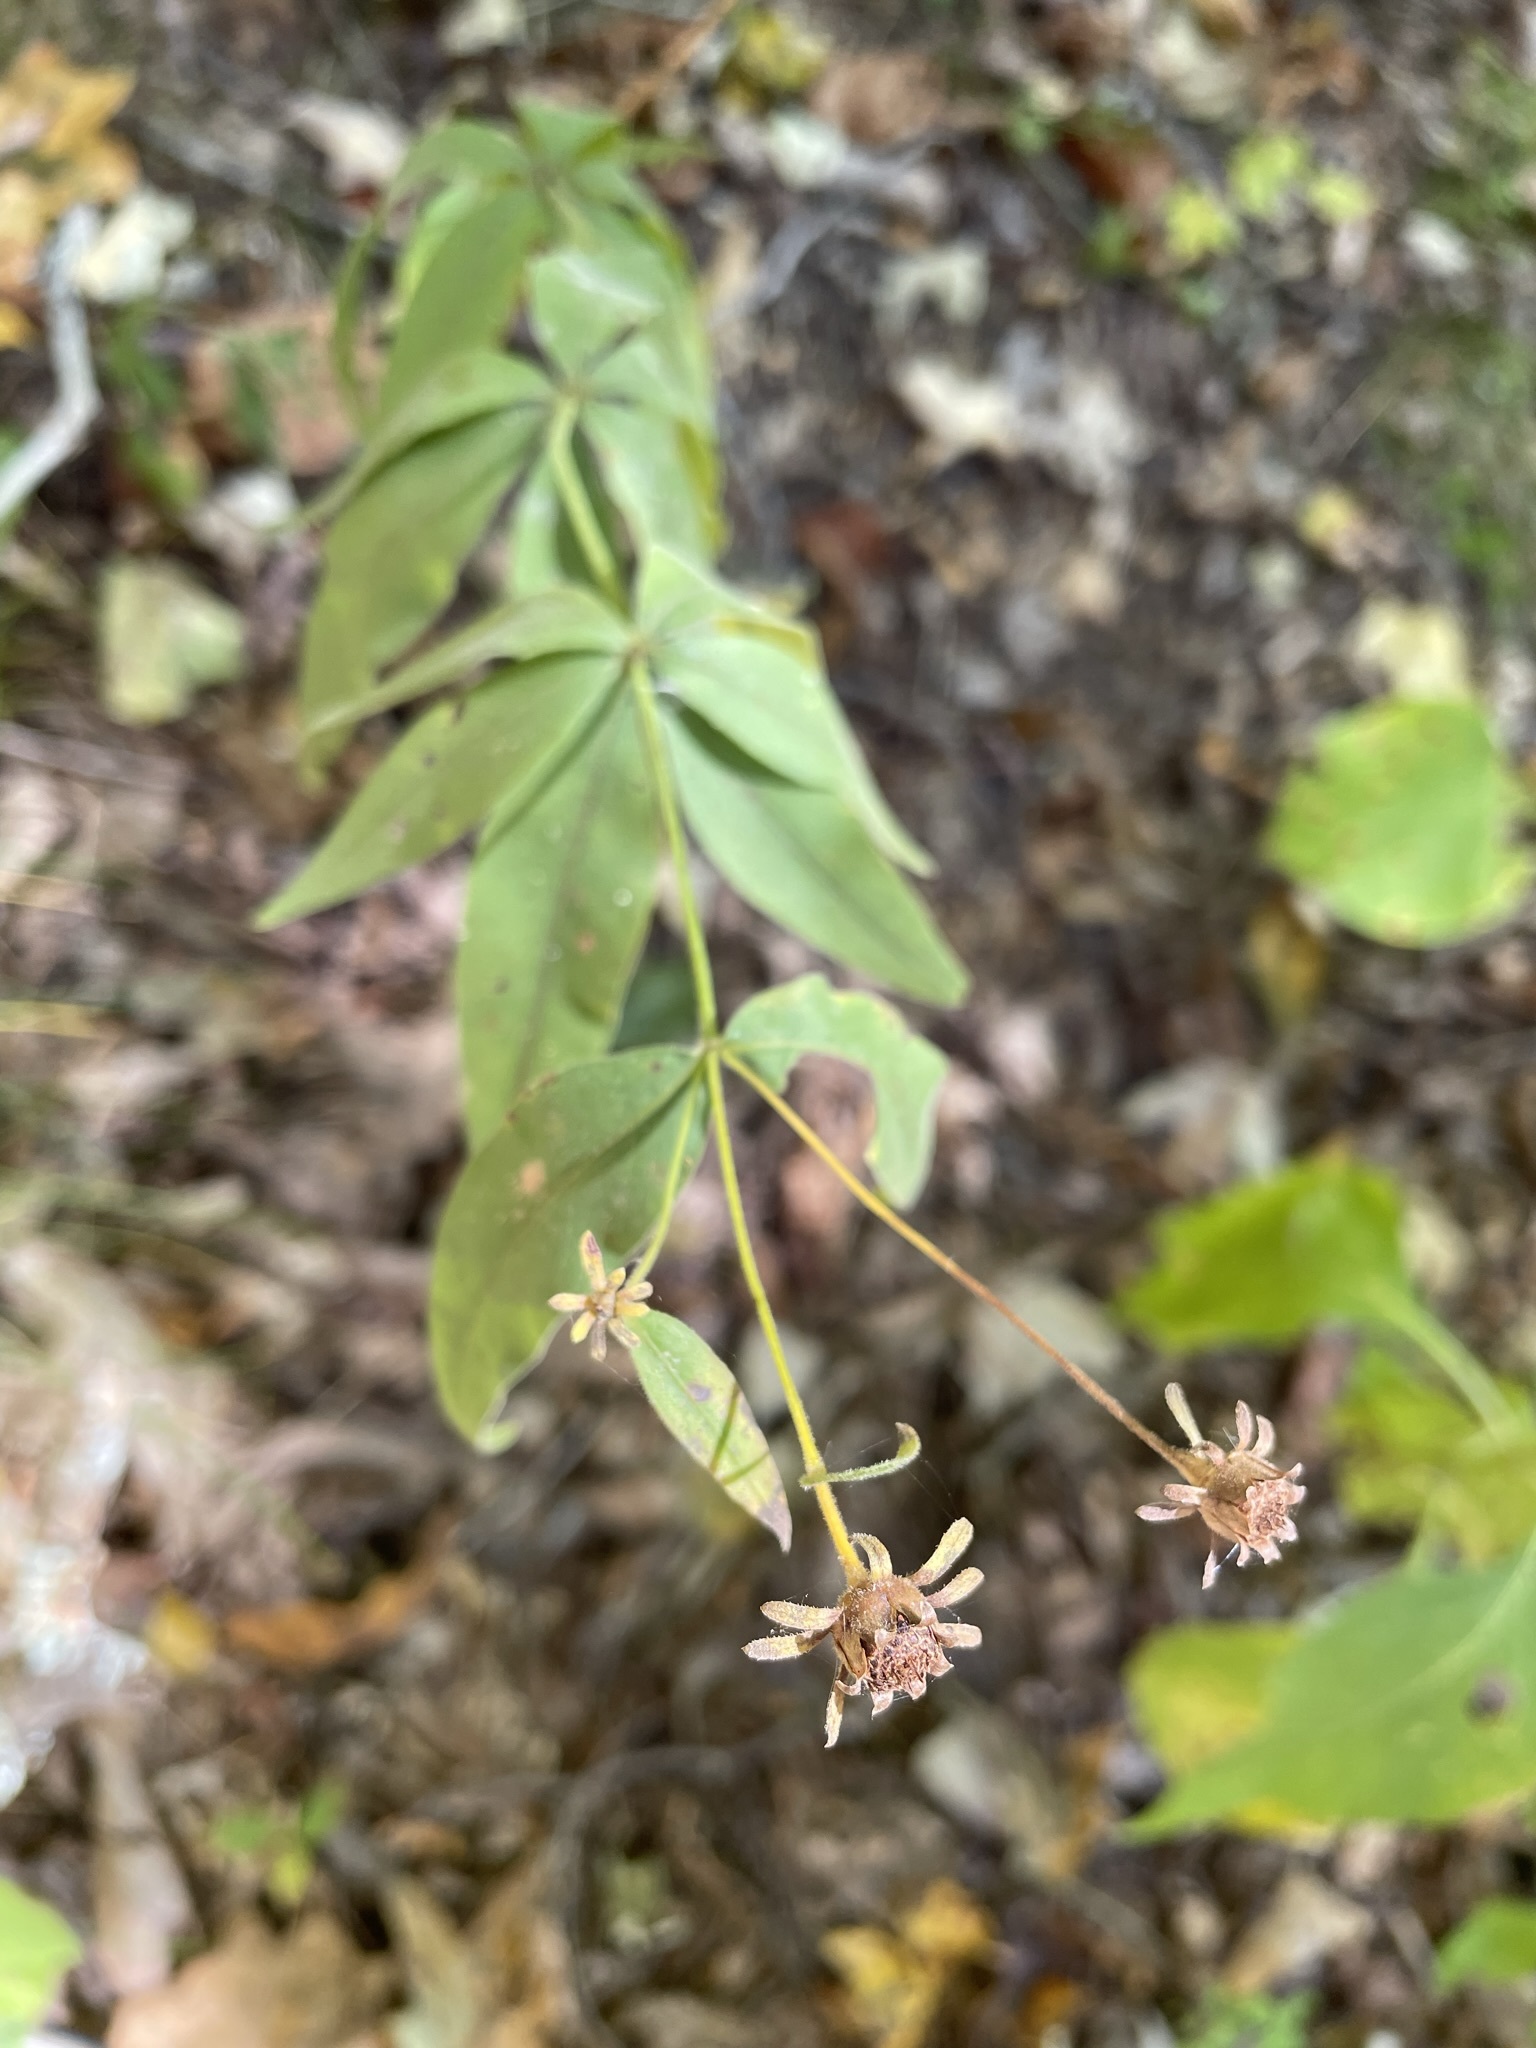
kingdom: Plantae
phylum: Tracheophyta
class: Magnoliopsida
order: Asterales
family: Asteraceae
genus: Coreopsis
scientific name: Coreopsis major
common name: Forest tickseed
